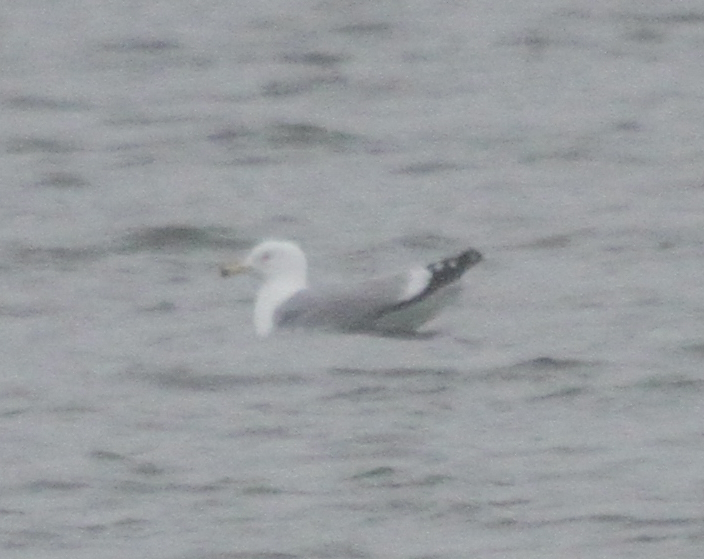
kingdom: Animalia
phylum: Chordata
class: Aves
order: Charadriiformes
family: Laridae
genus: Larus
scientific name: Larus argentatus
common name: Herring gull
